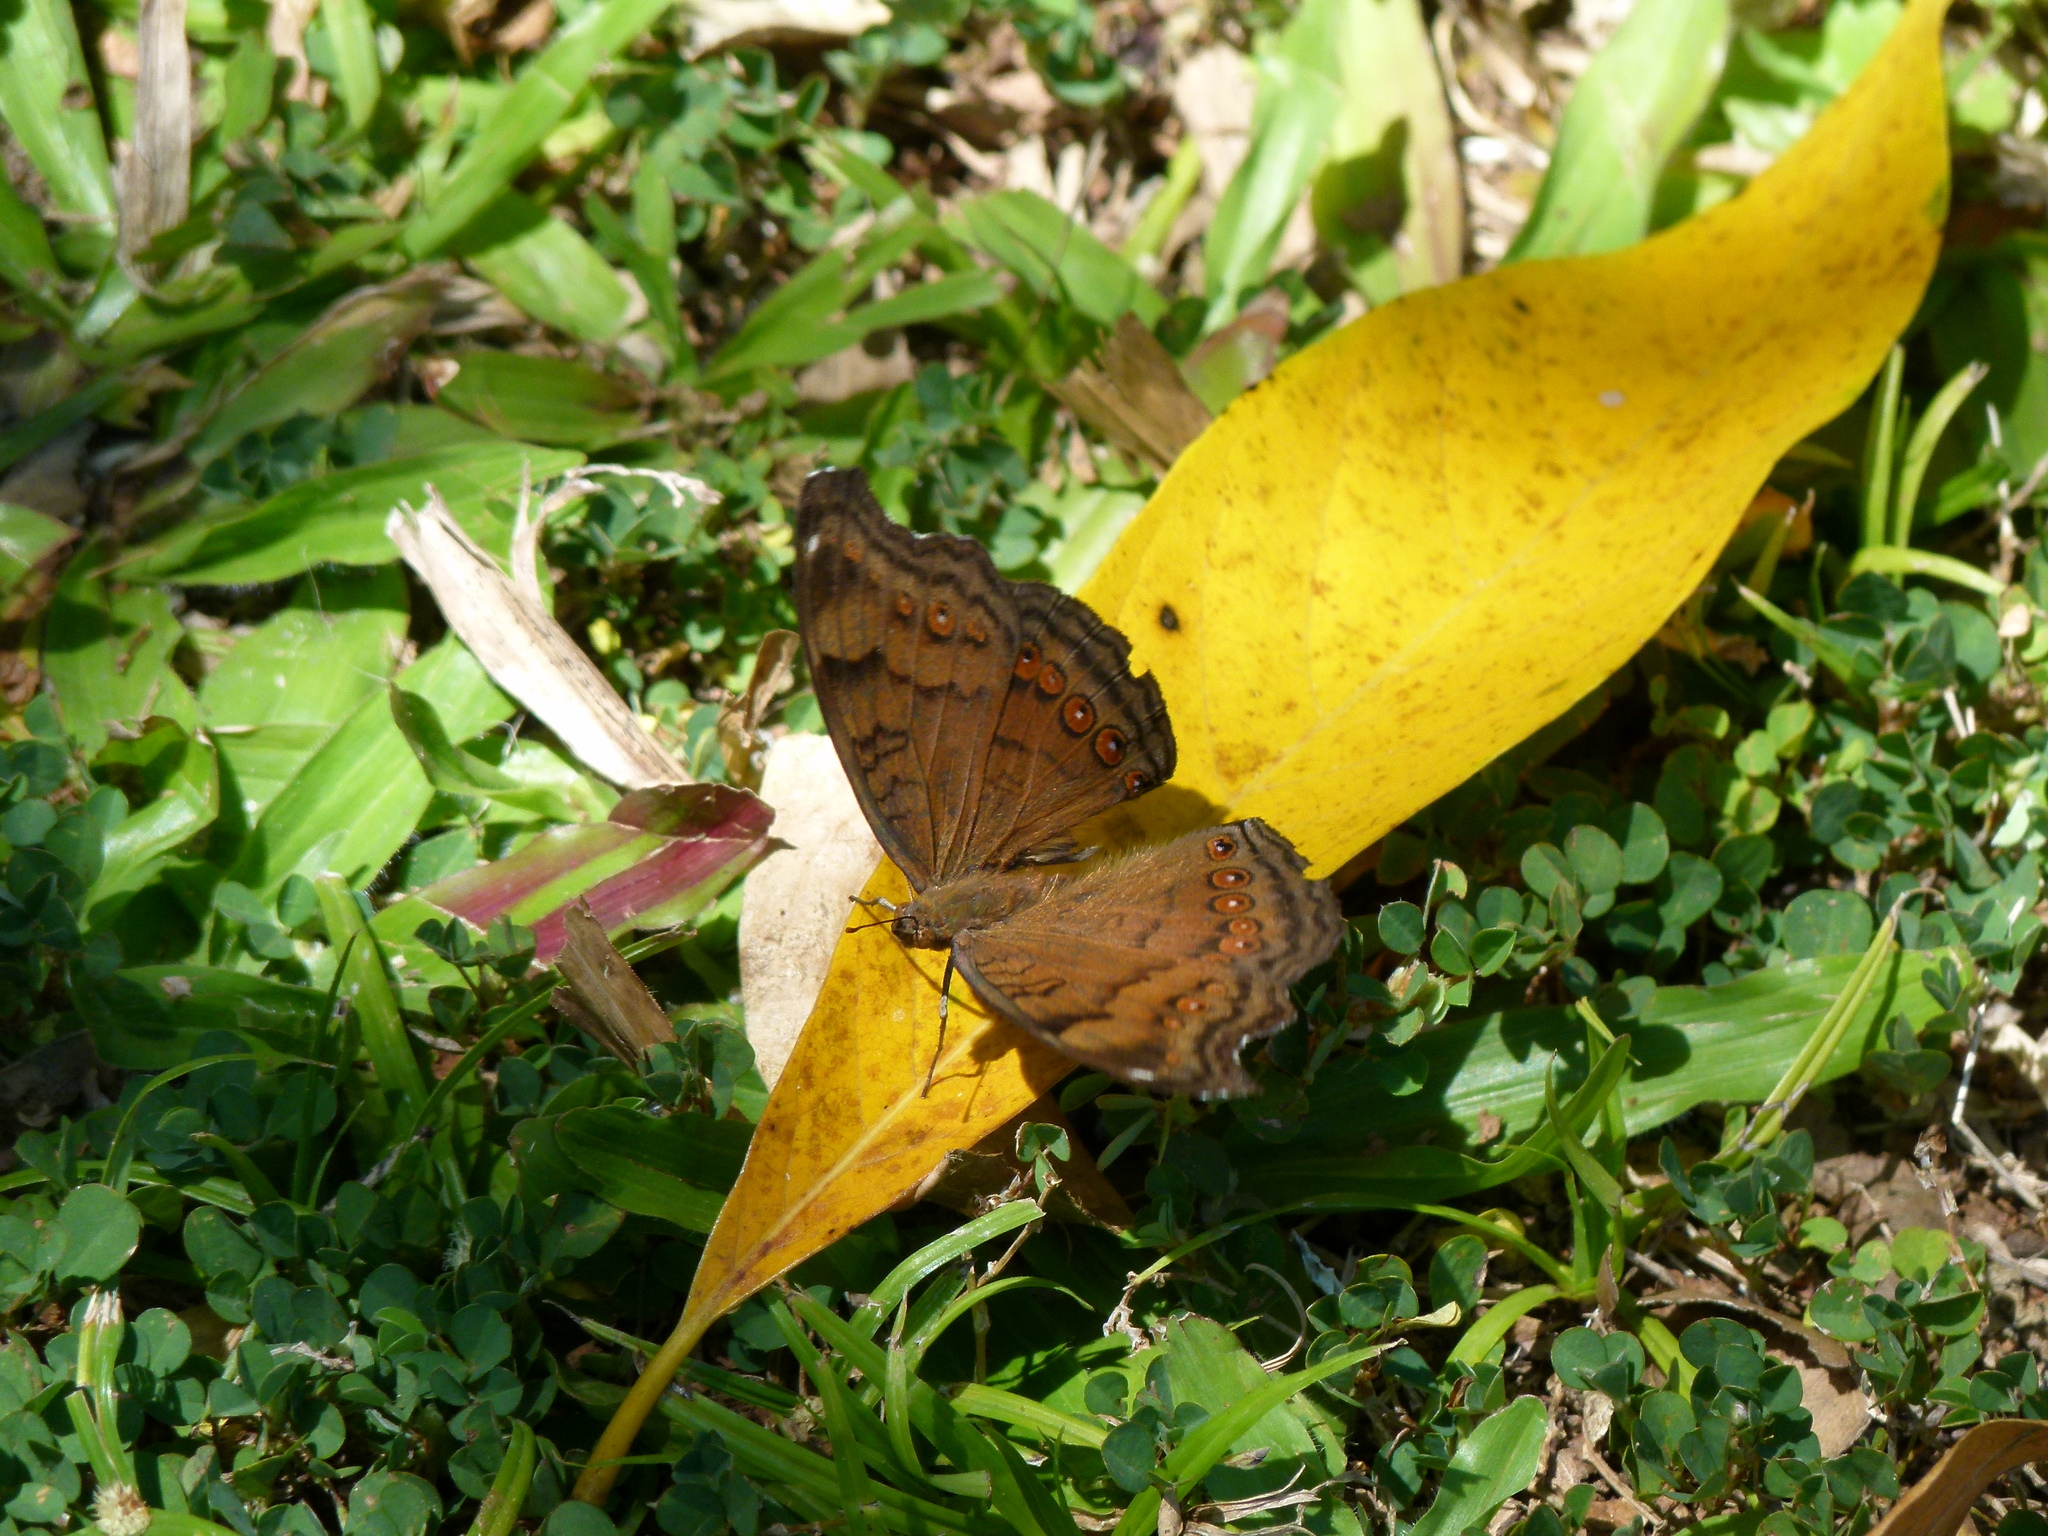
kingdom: Animalia
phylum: Arthropoda
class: Insecta
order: Lepidoptera
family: Nymphalidae
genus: Junonia
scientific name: Junonia hedonia
